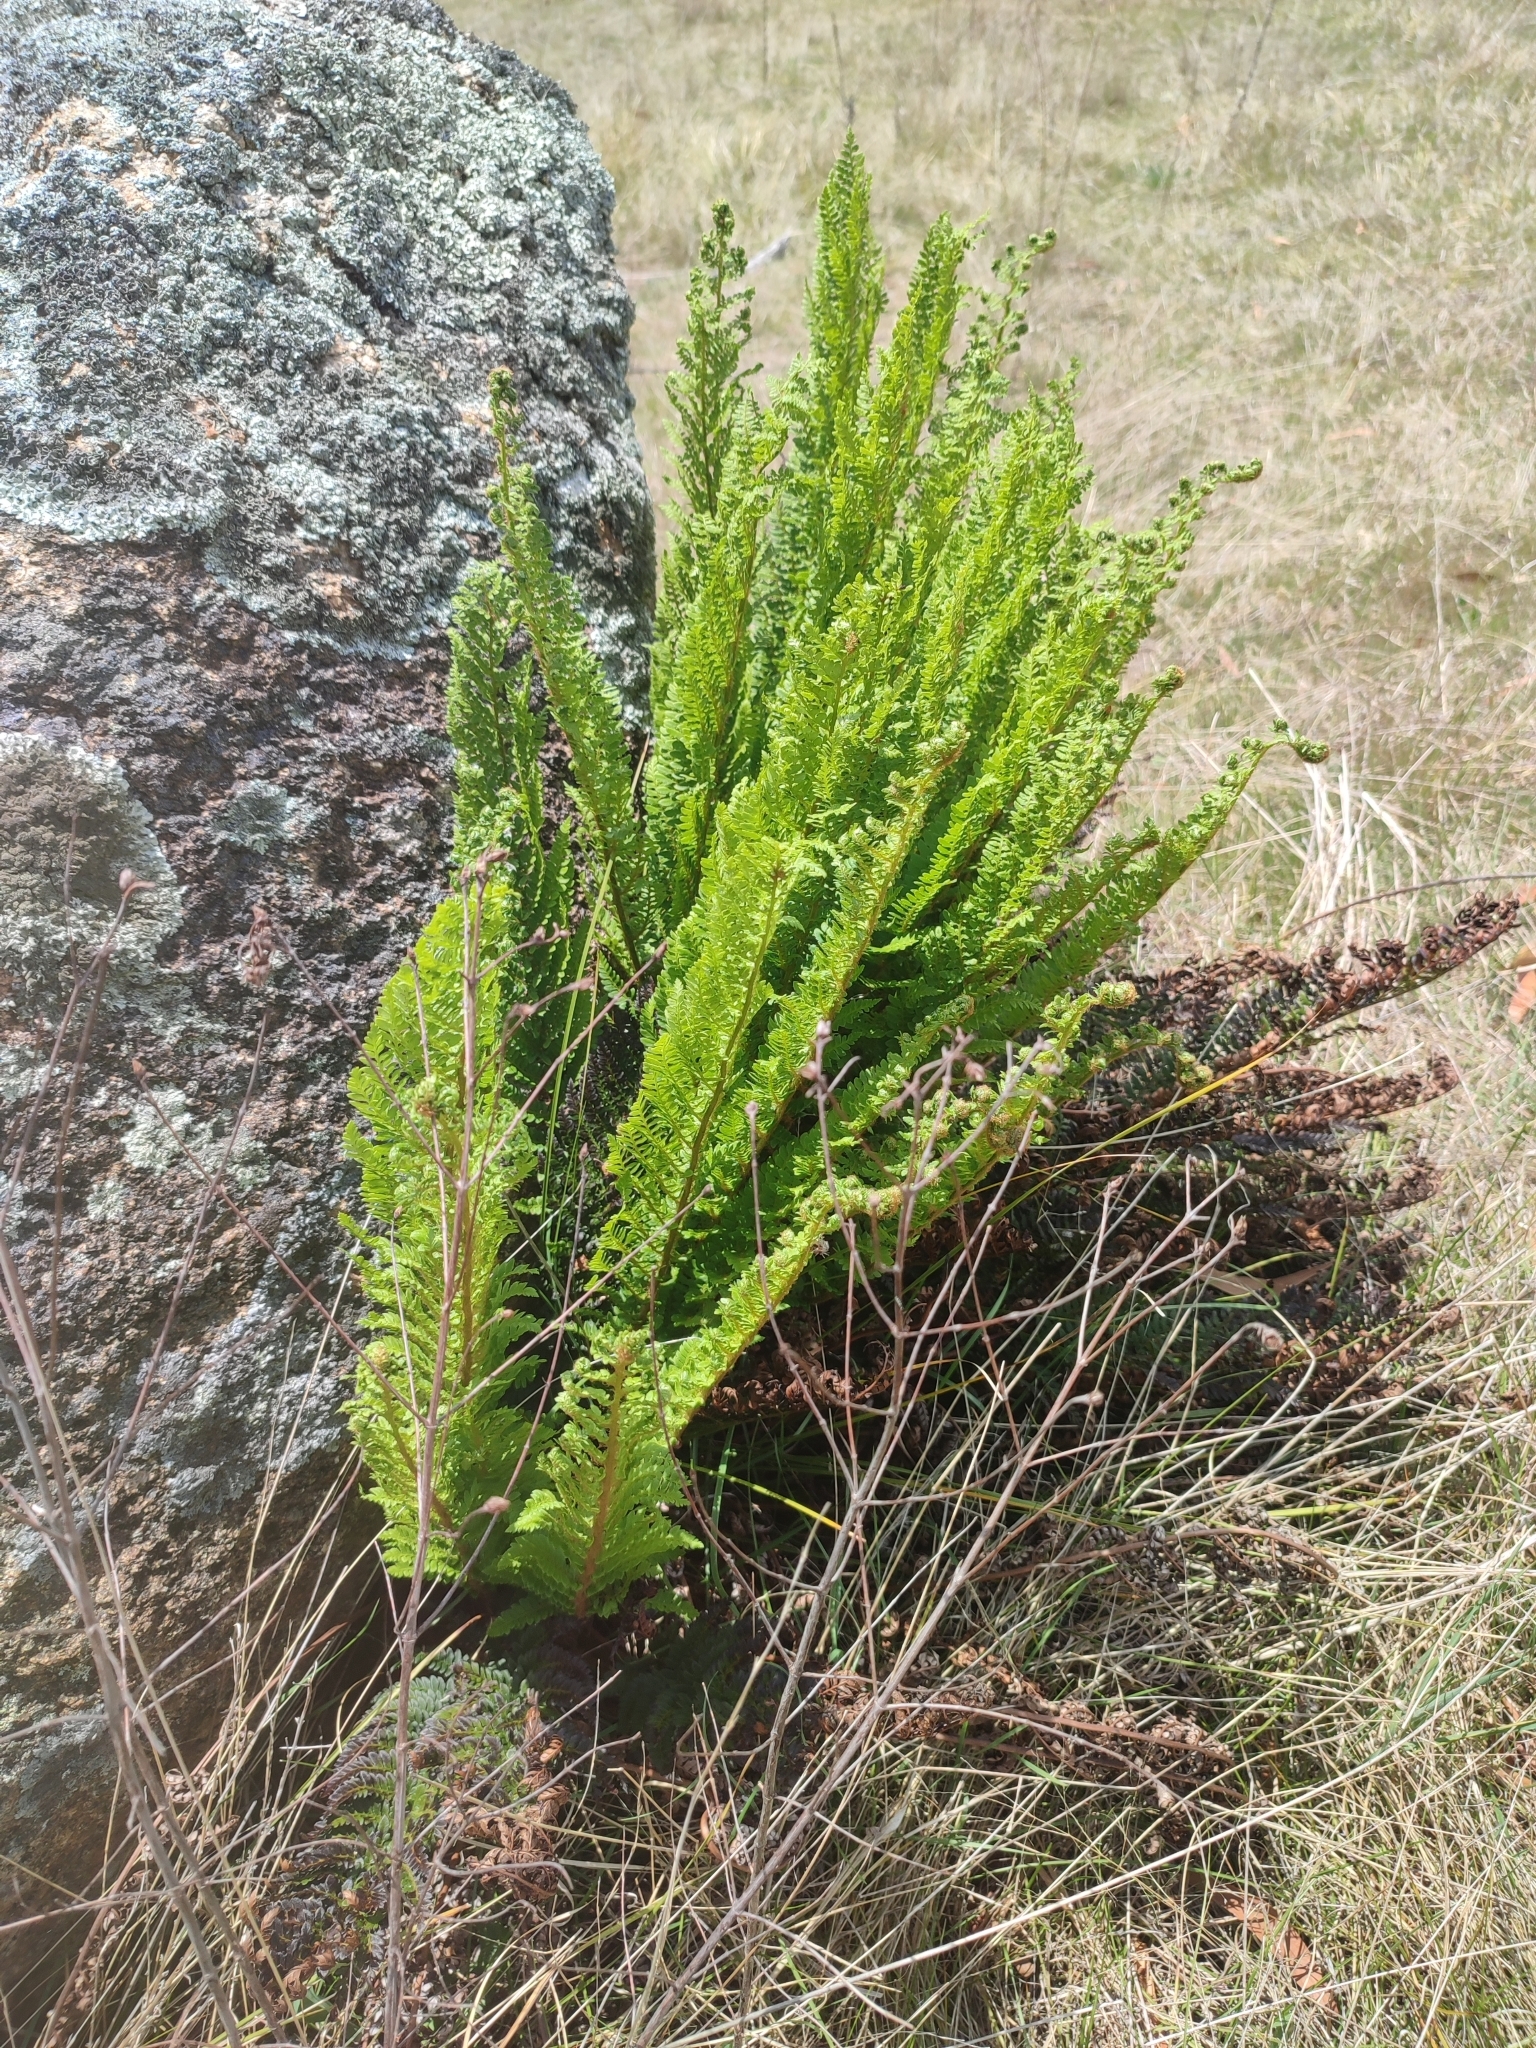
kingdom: Plantae
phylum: Tracheophyta
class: Polypodiopsida
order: Polypodiales
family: Dryopteridaceae
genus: Polystichum
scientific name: Polystichum proliferum
